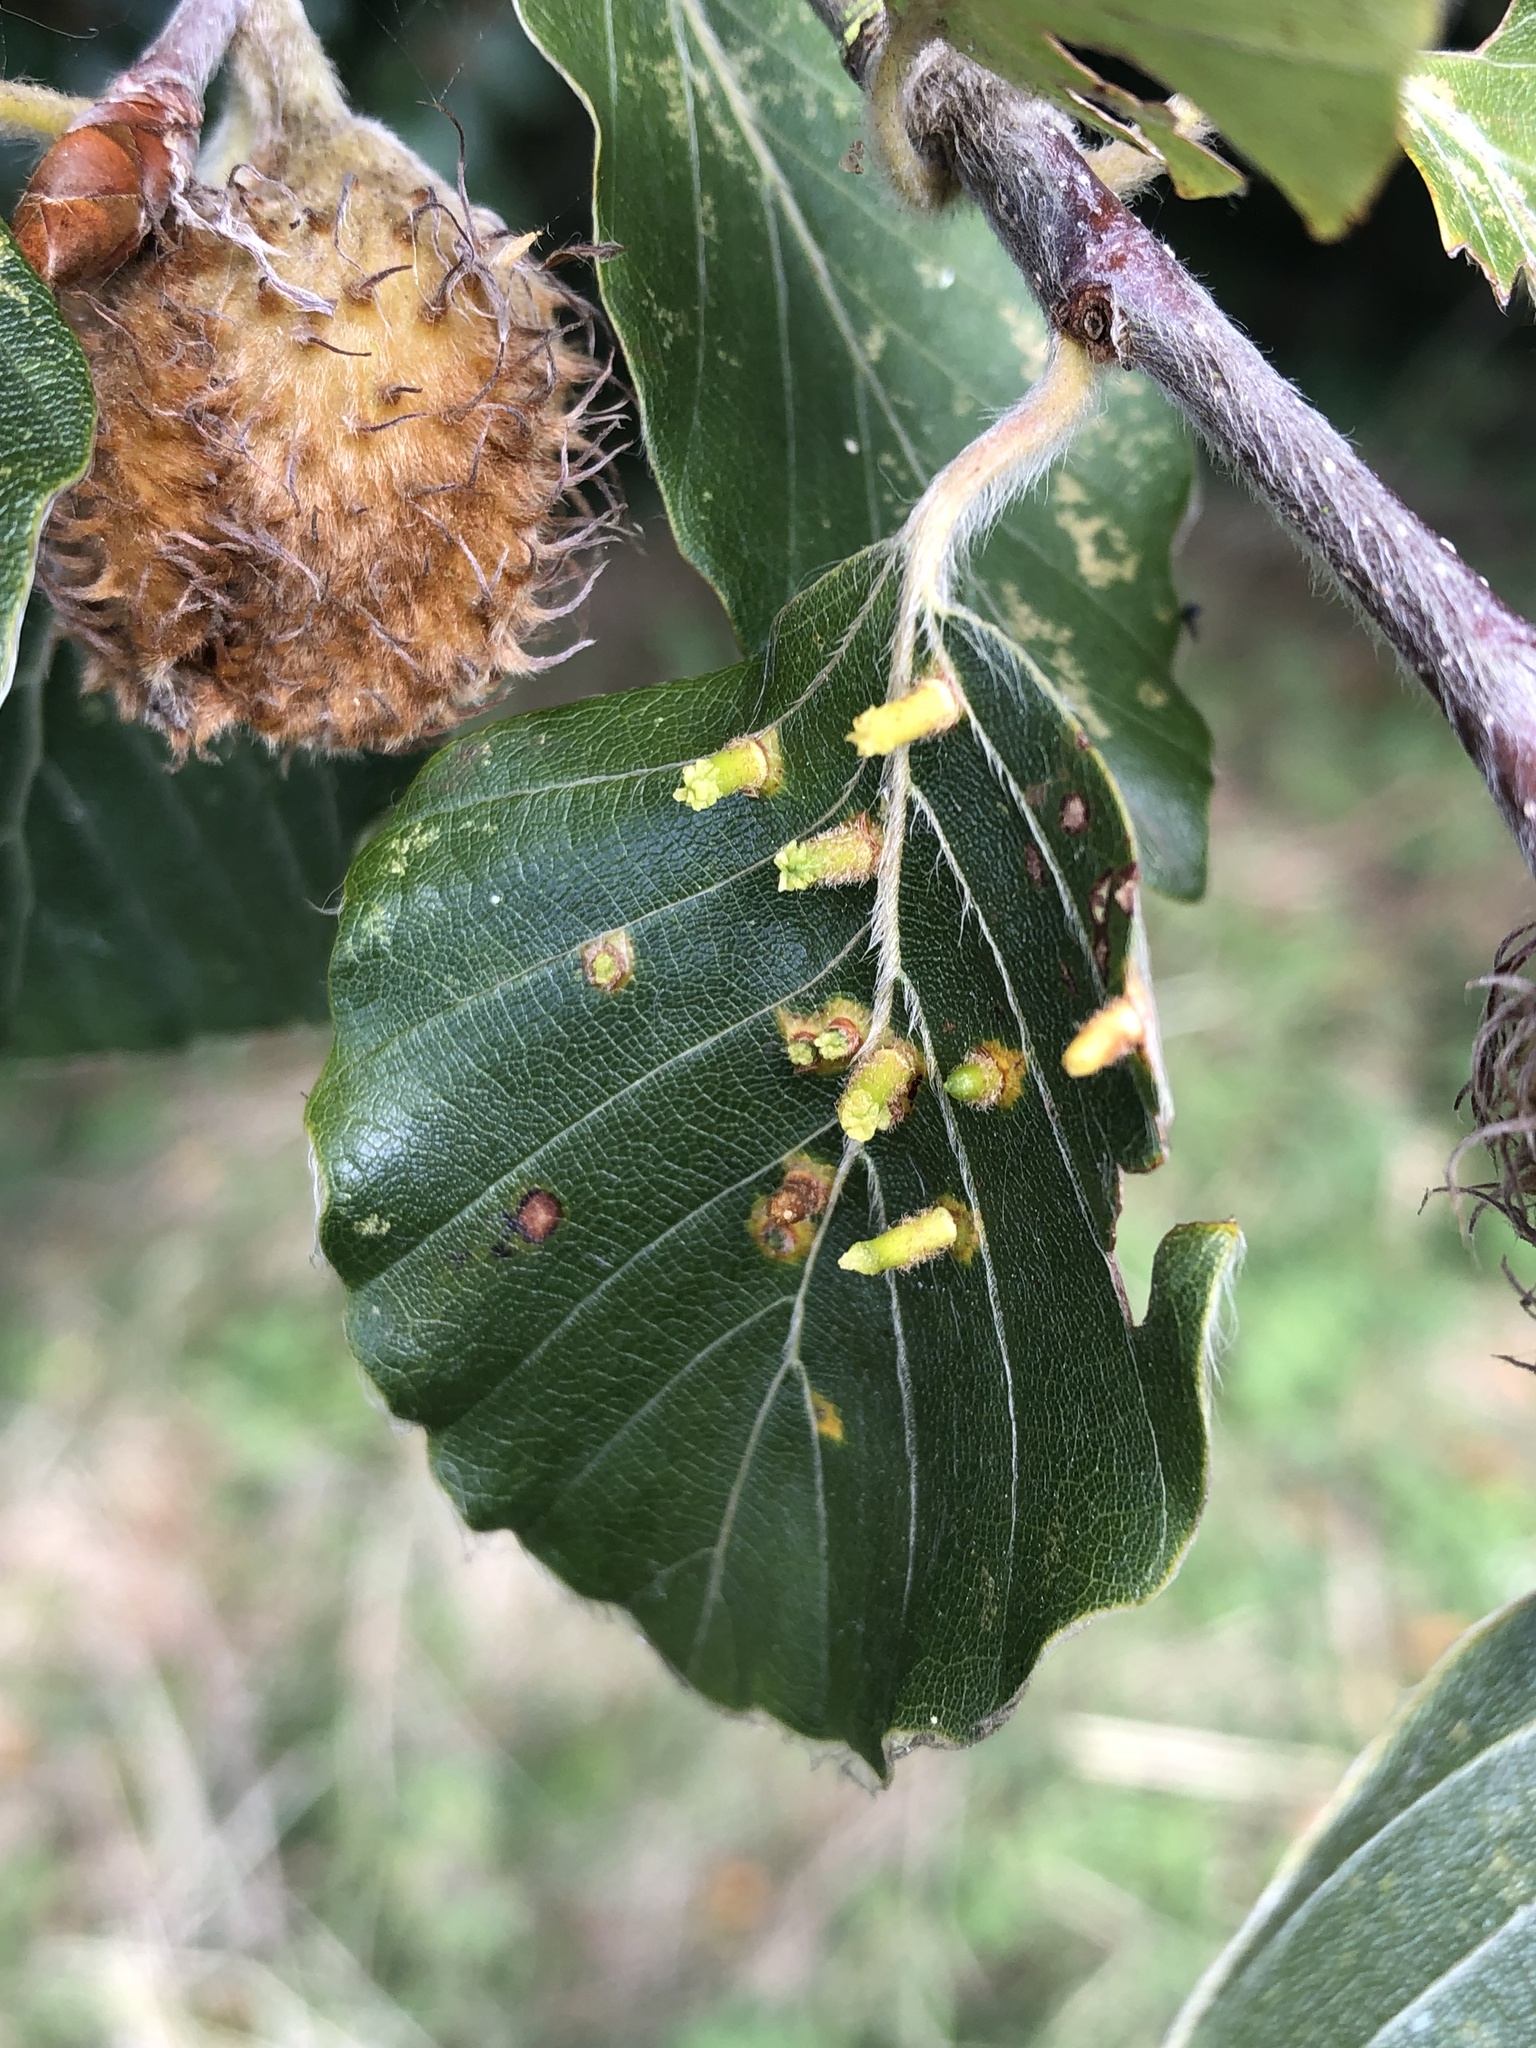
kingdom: Animalia
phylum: Arthropoda
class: Insecta
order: Diptera
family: Cecidomyiidae
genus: Hartigiola
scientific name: Hartigiola annulipes
